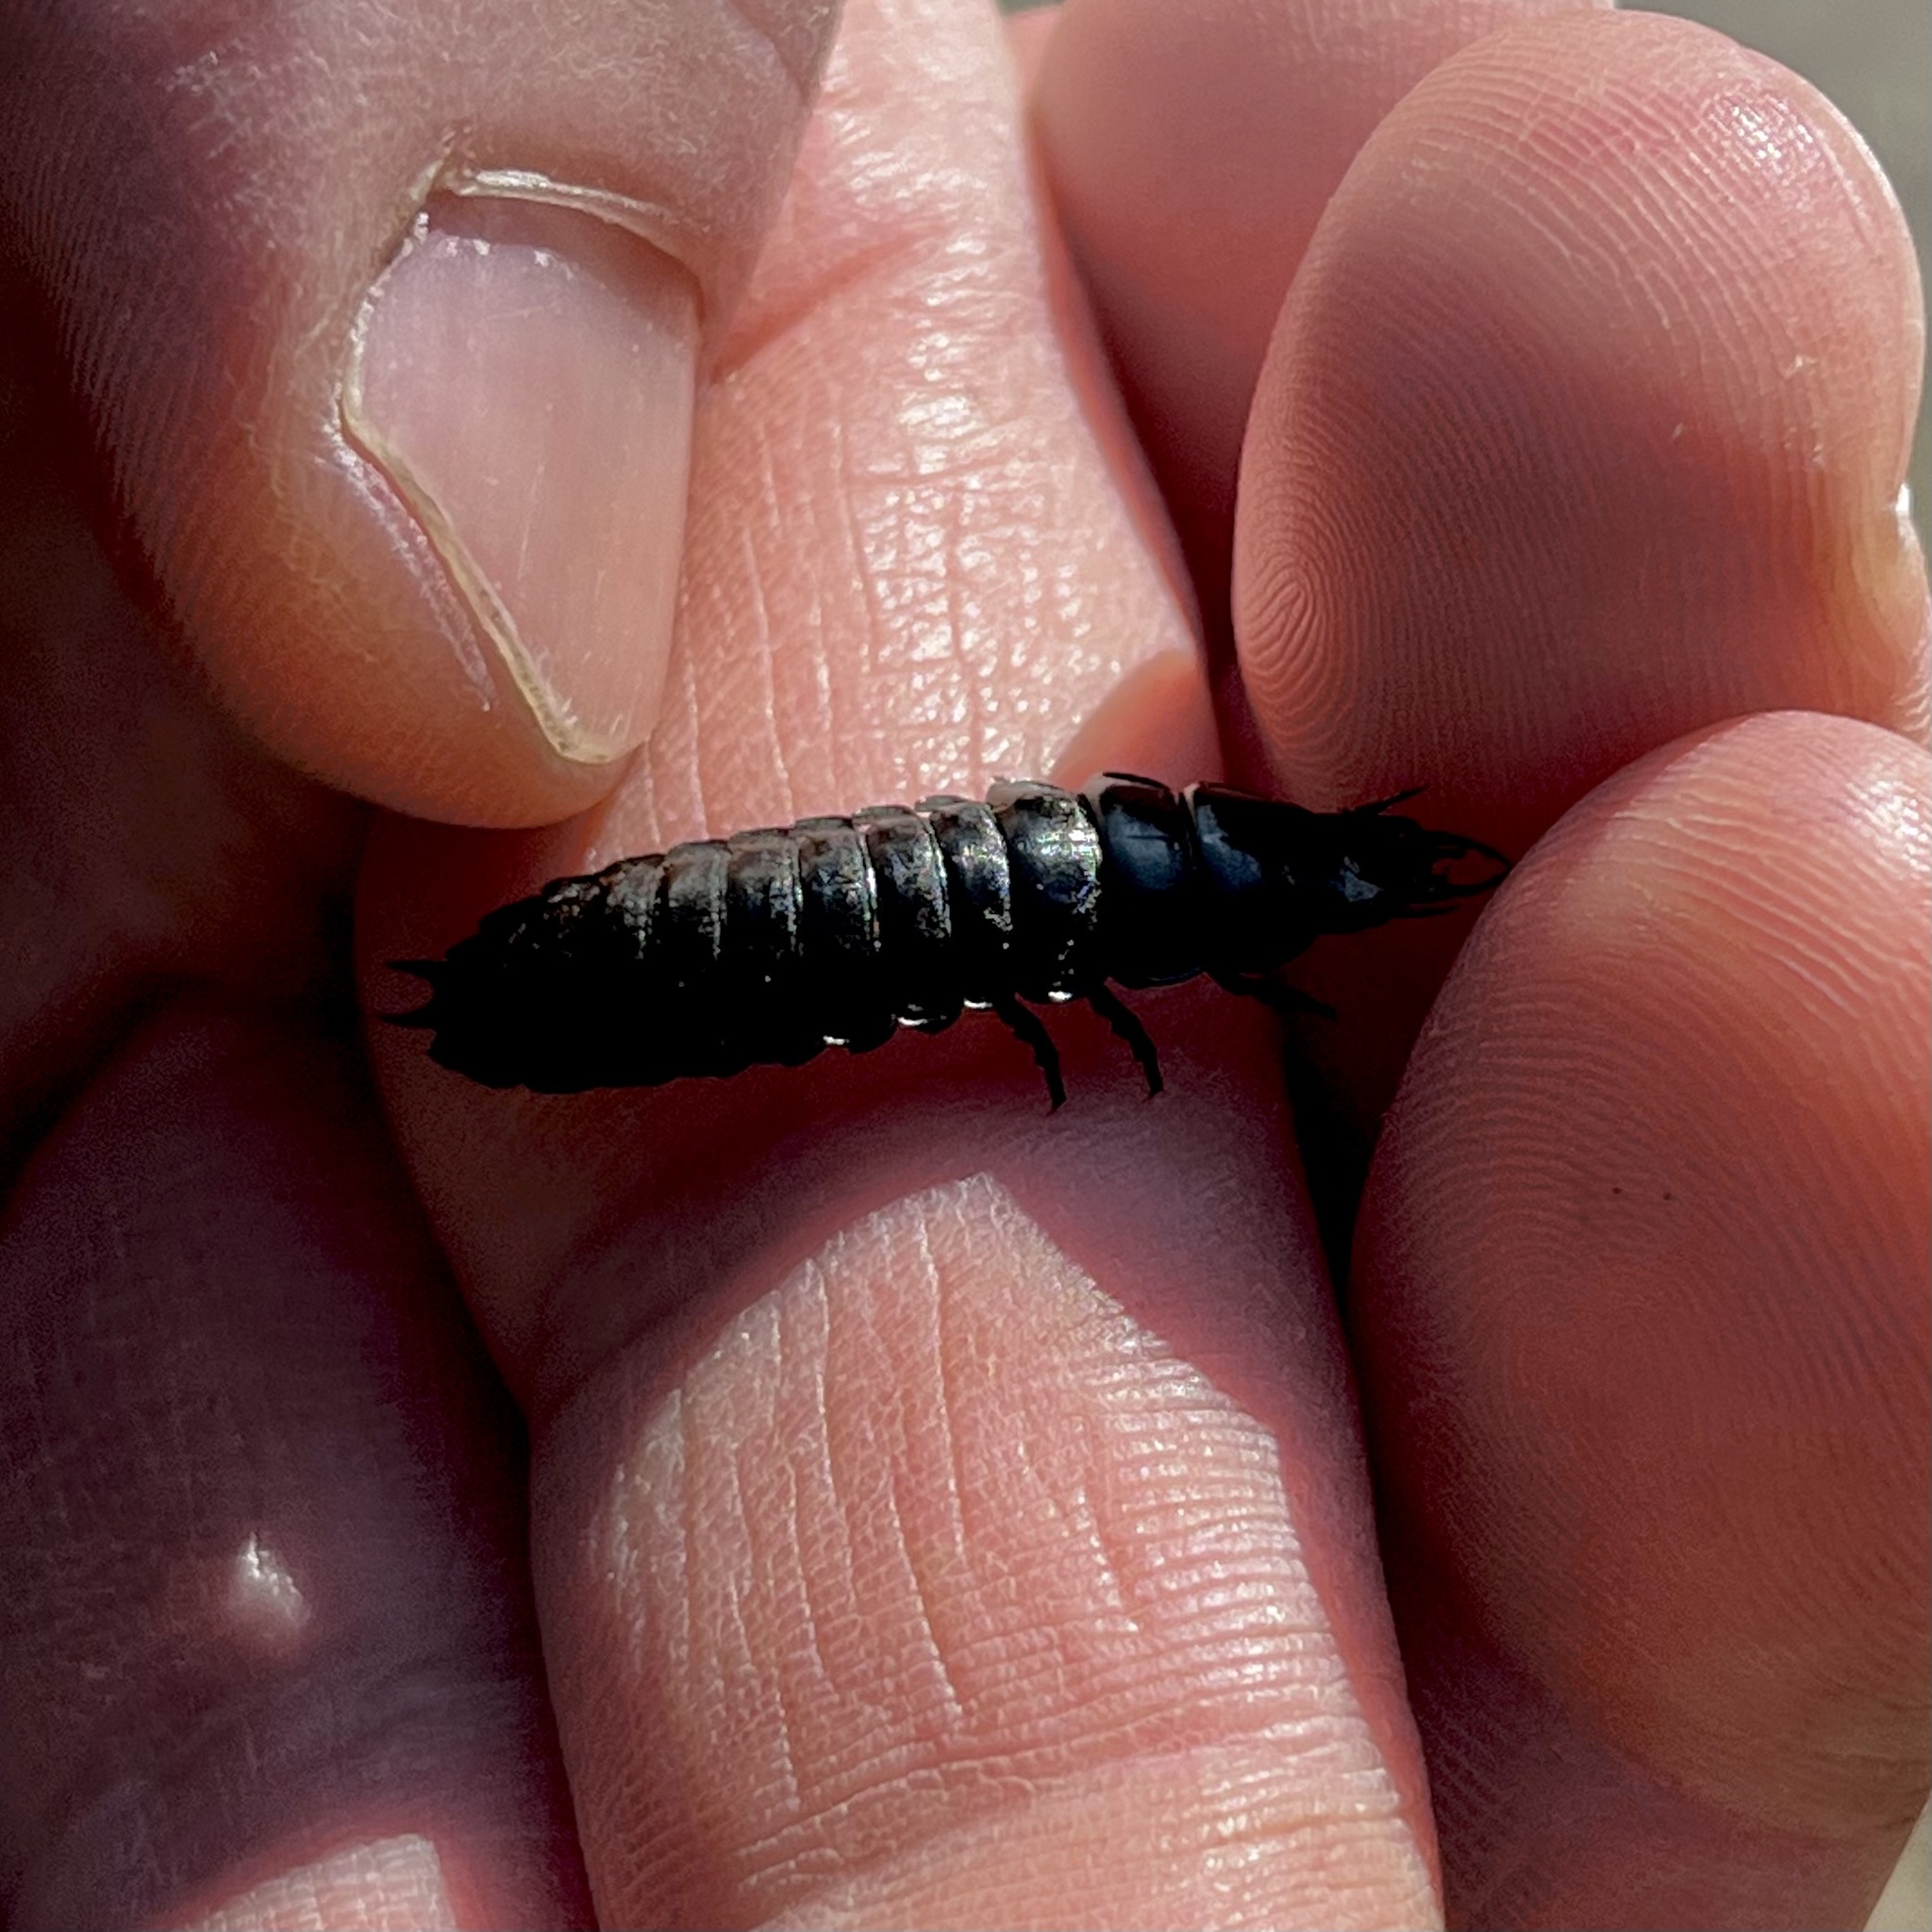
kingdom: Animalia
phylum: Arthropoda
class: Insecta
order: Coleoptera
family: Carabidae
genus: Carabus
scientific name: Carabus
